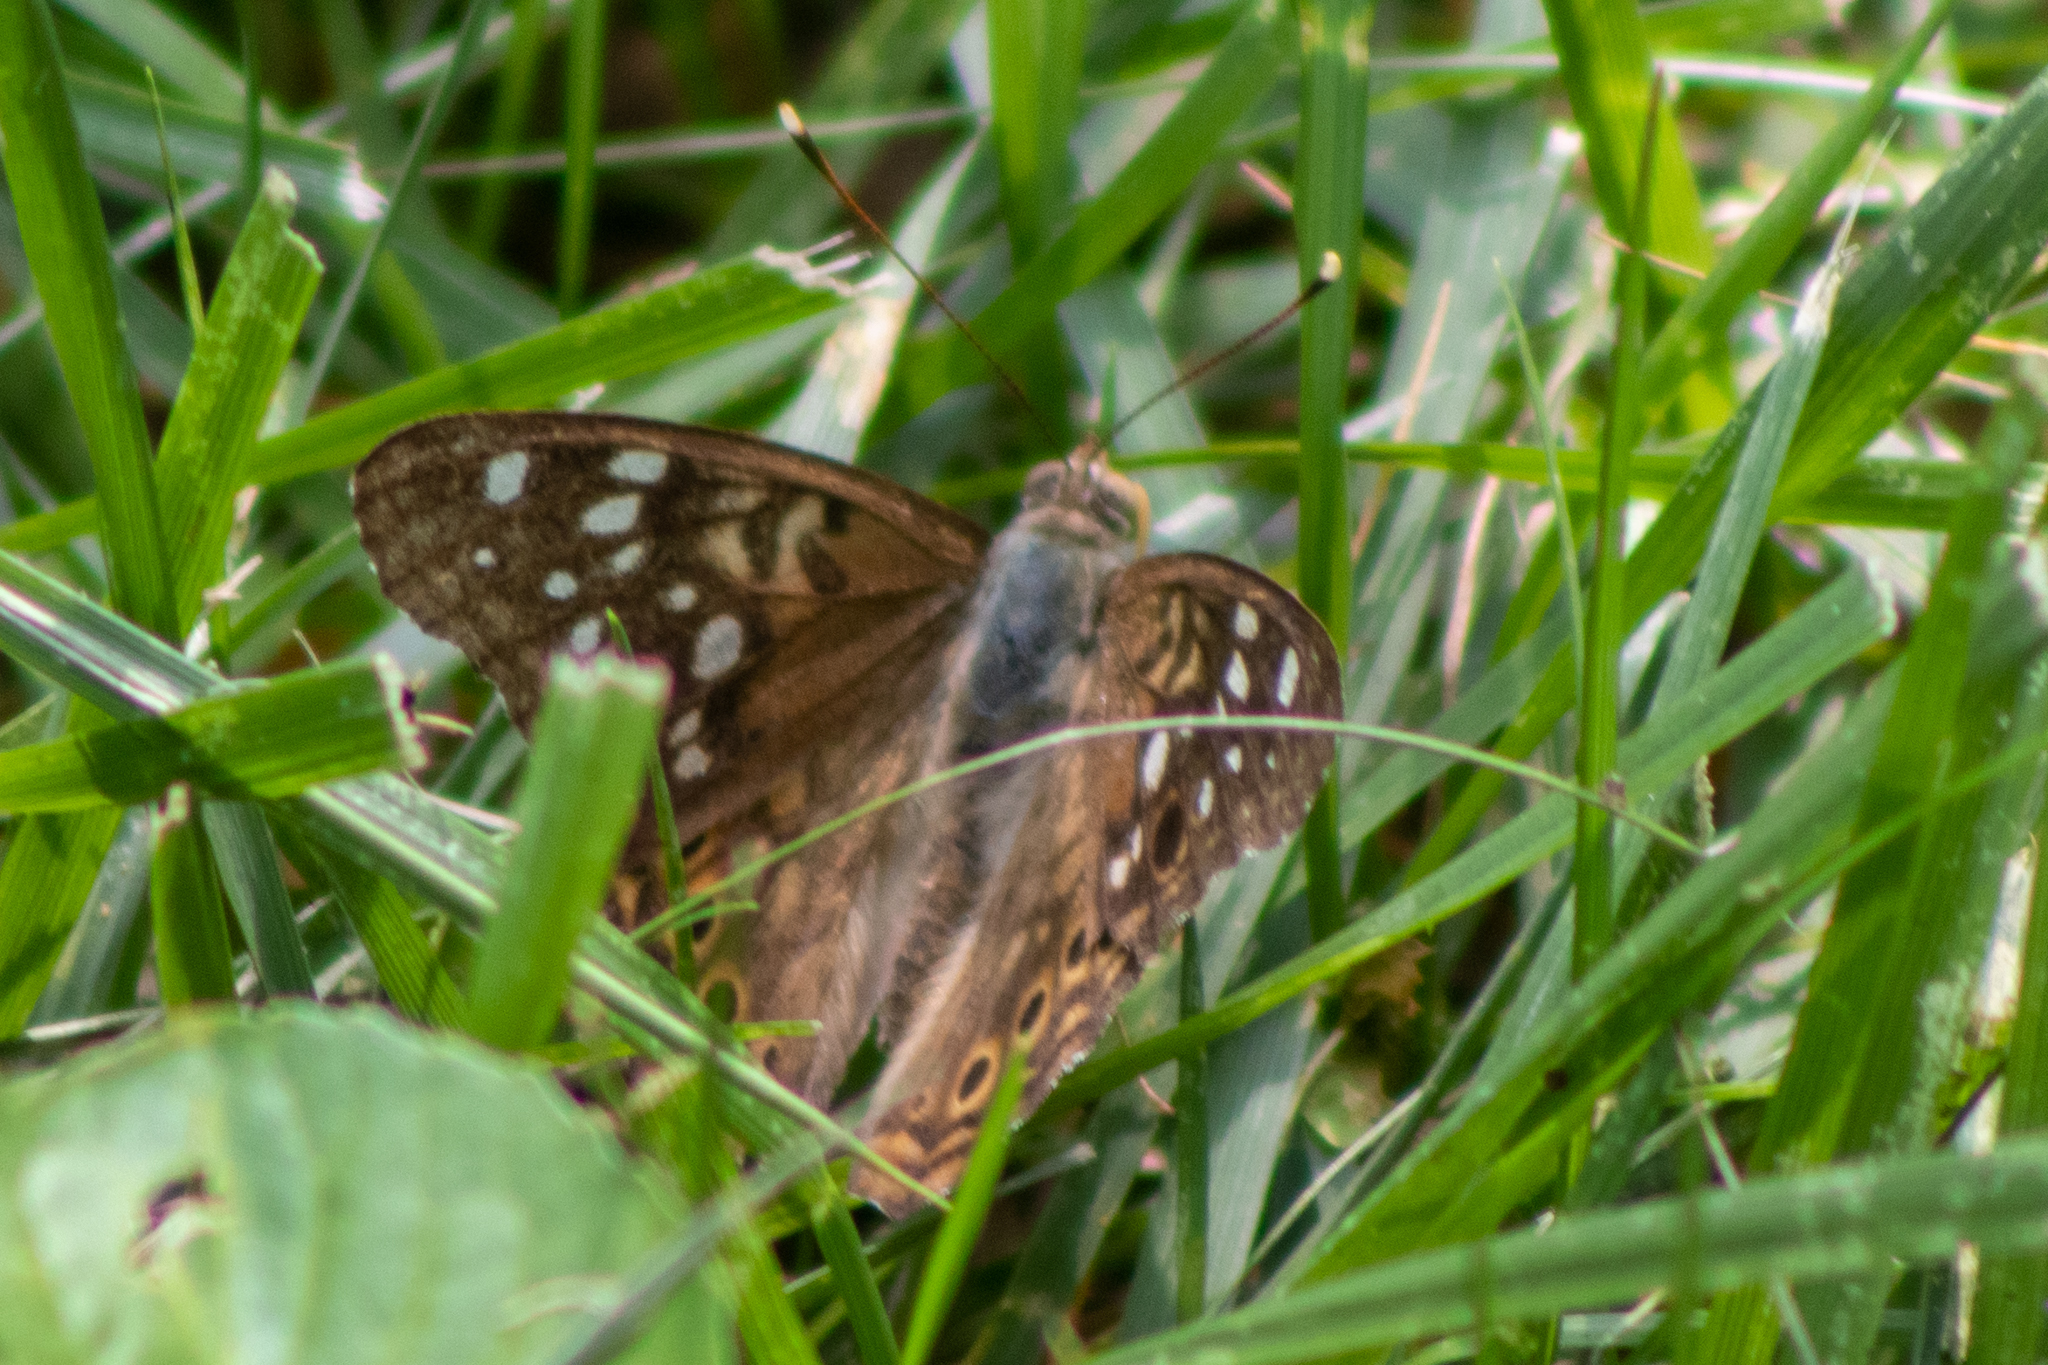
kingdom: Animalia
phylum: Arthropoda
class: Insecta
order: Lepidoptera
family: Nymphalidae
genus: Asterocampa
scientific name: Asterocampa celtis
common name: Hackberry emperor
